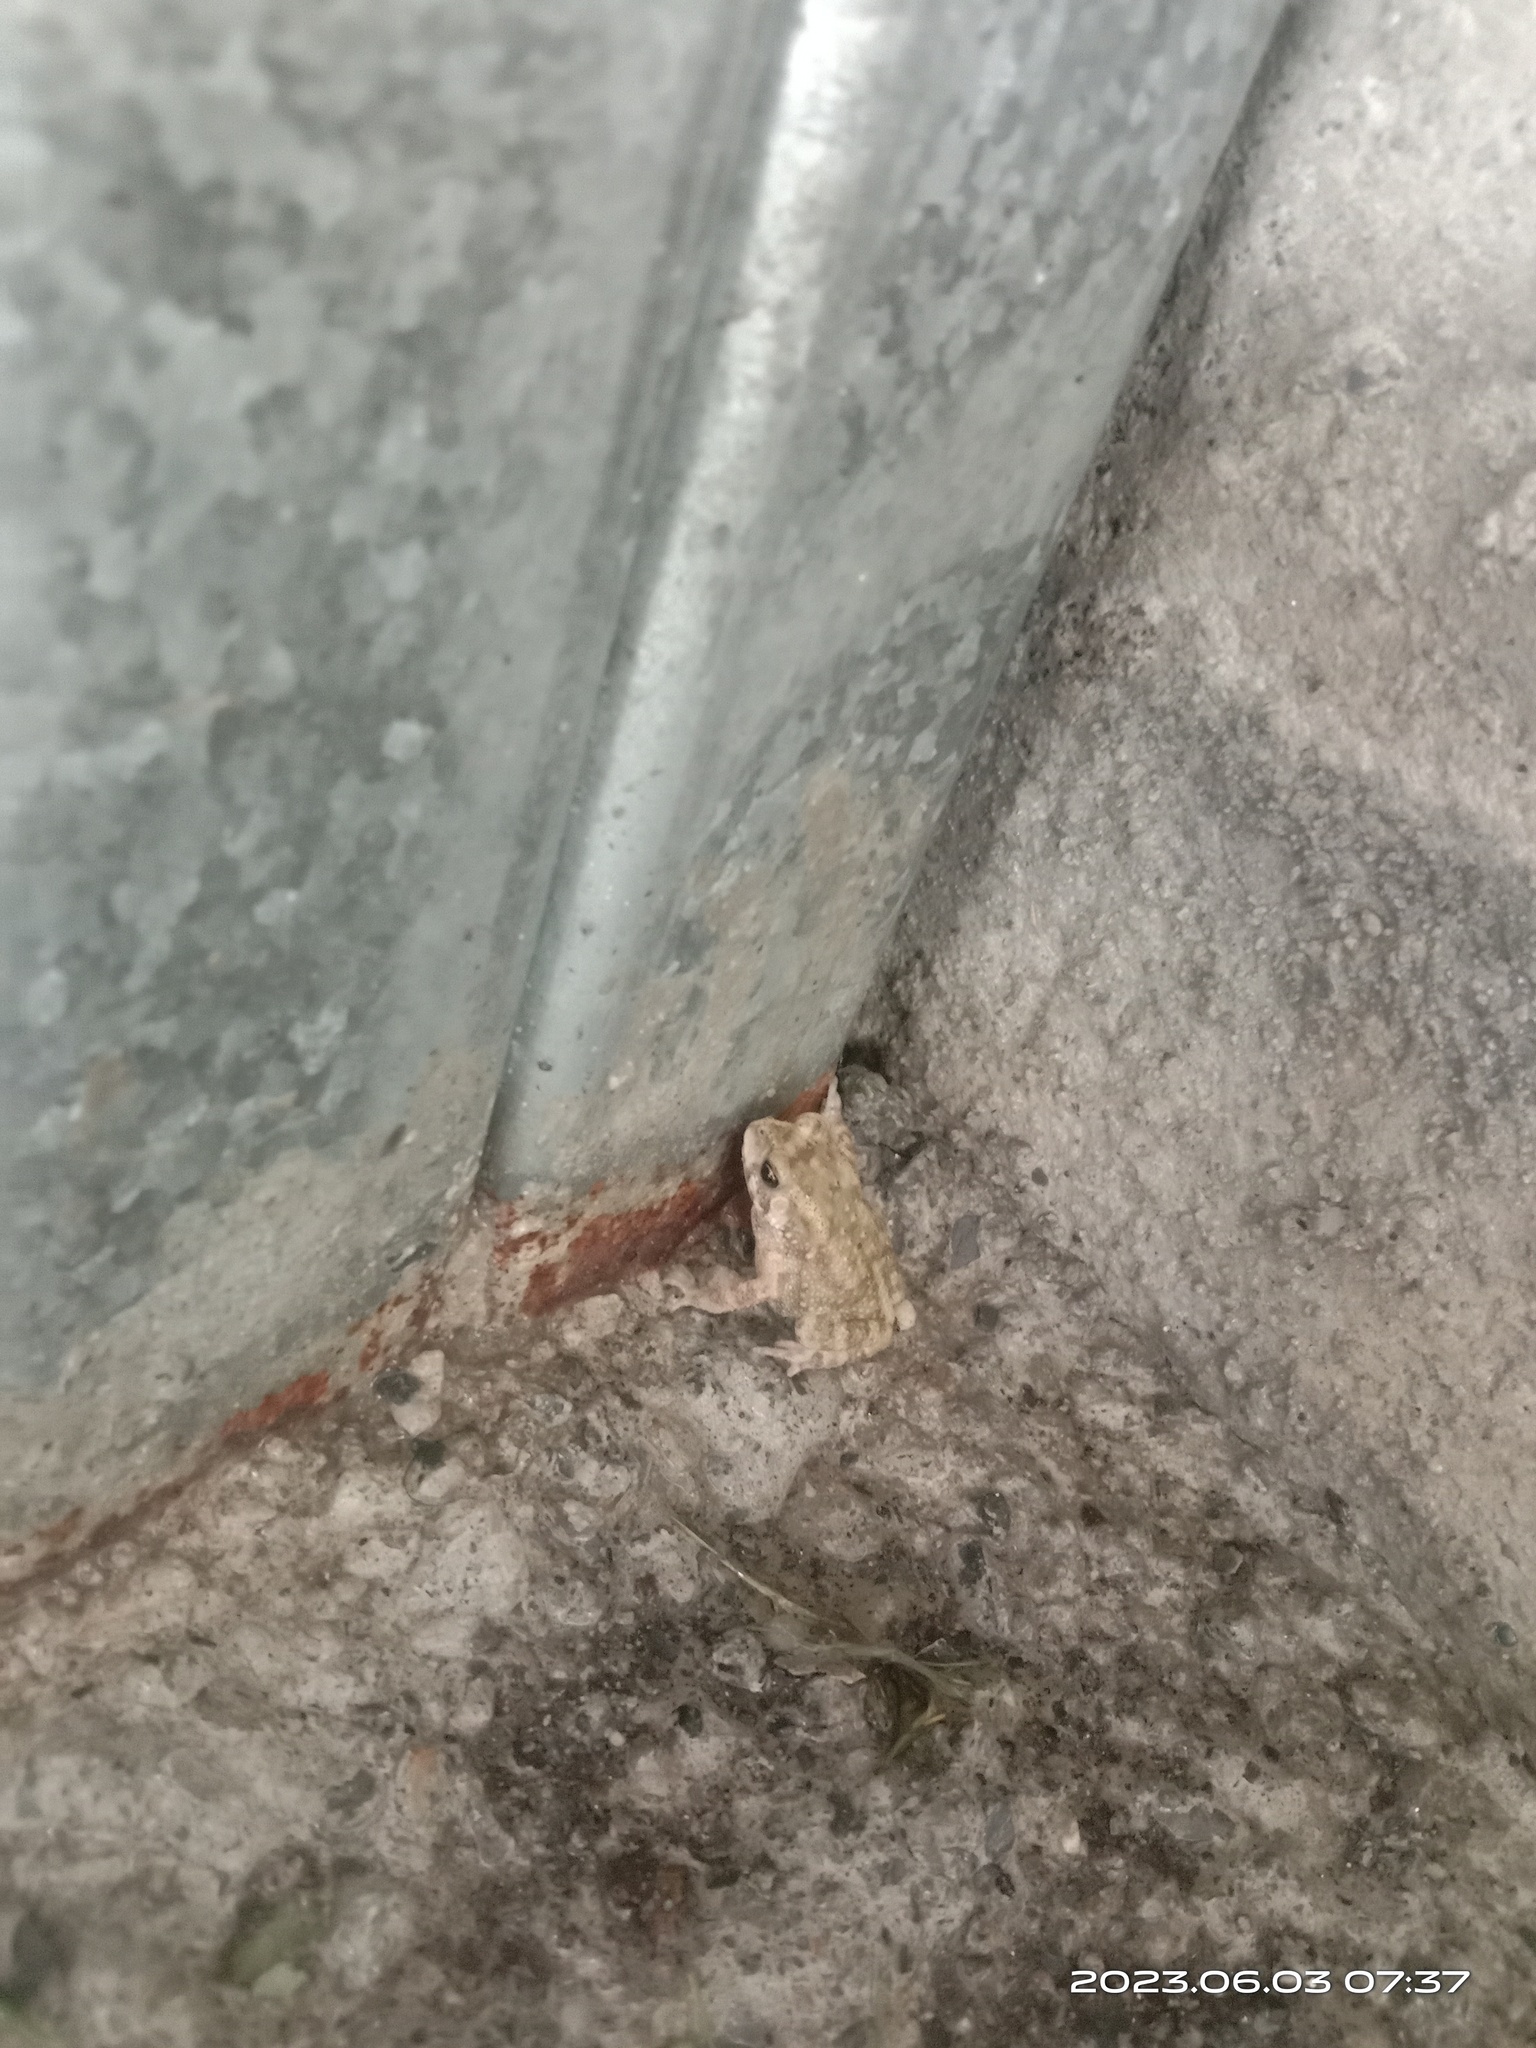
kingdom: Animalia
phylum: Chordata
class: Amphibia
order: Anura
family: Bufonidae
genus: Duttaphrynus
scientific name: Duttaphrynus melanostictus
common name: Common sunda toad
